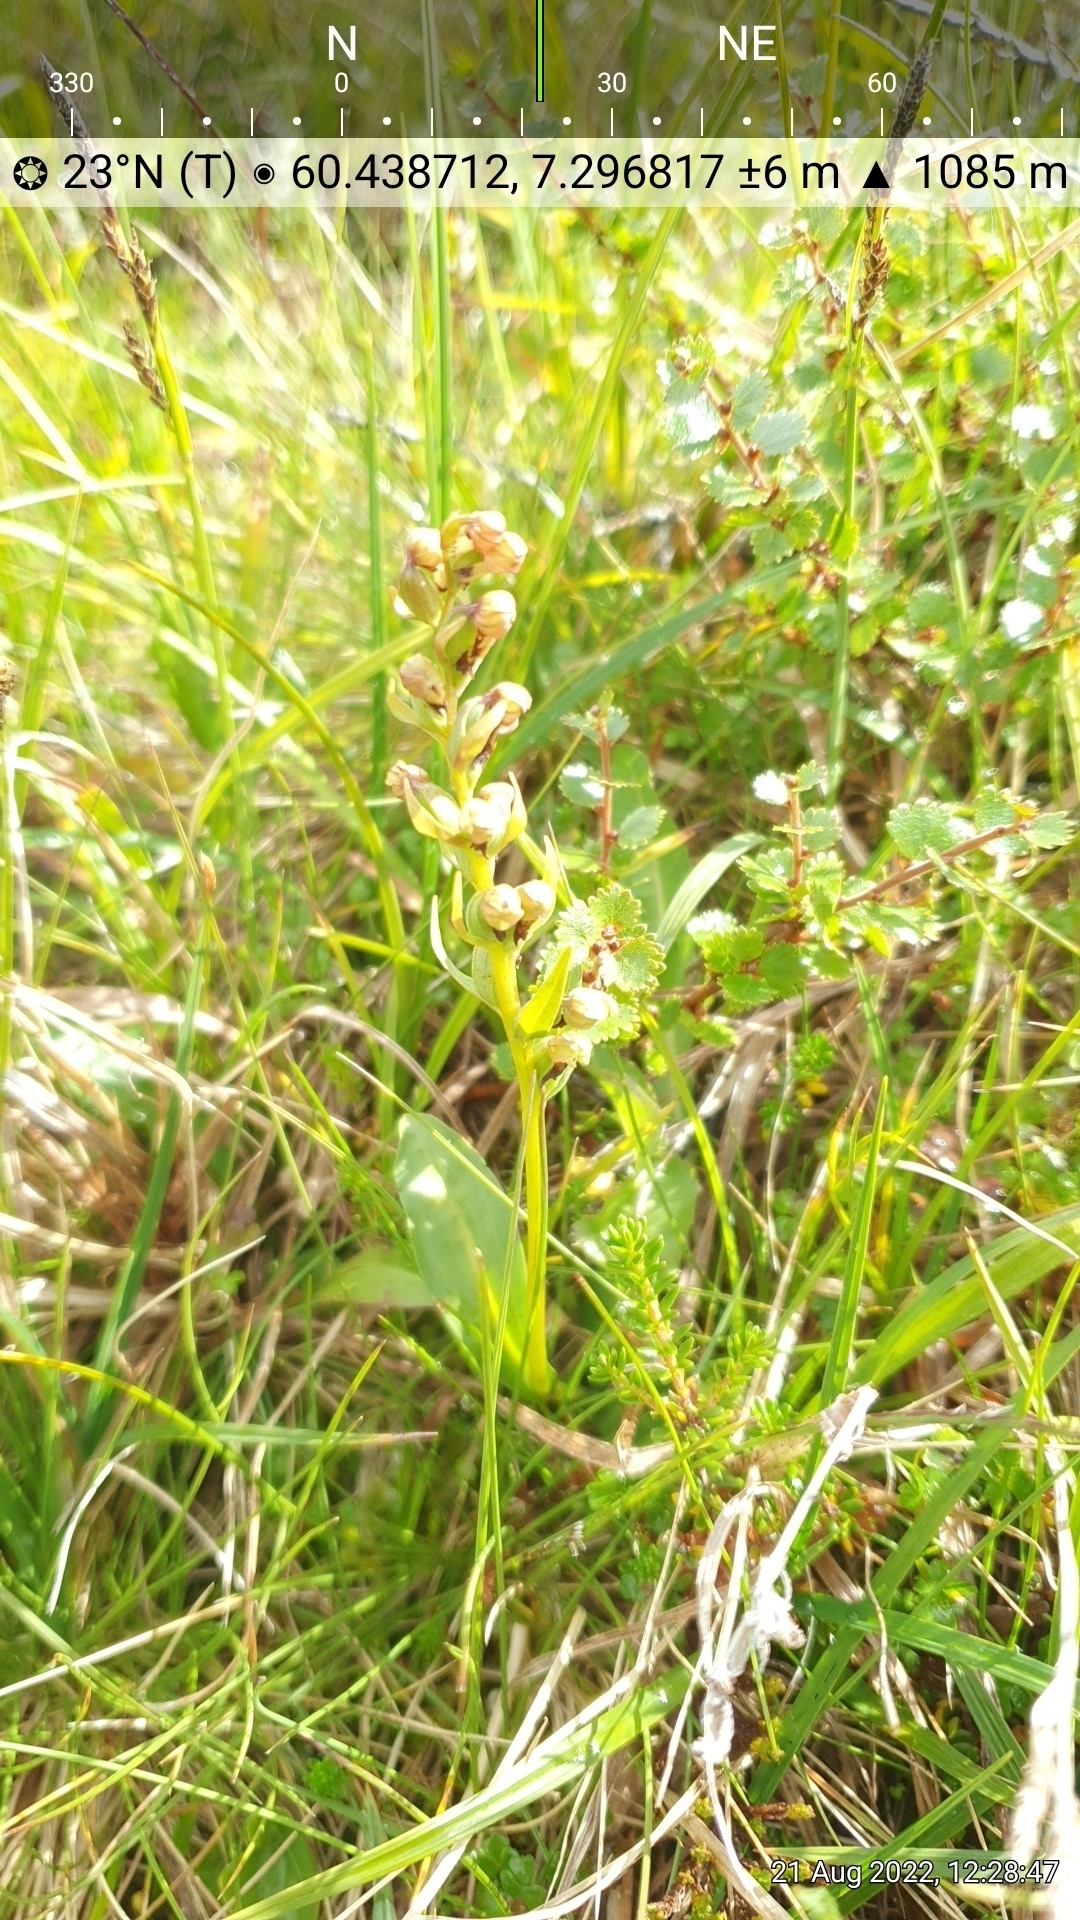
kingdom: Plantae
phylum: Tracheophyta
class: Liliopsida
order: Asparagales
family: Orchidaceae
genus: Dactylorhiza
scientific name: Dactylorhiza viridis
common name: Longbract frog orchid
